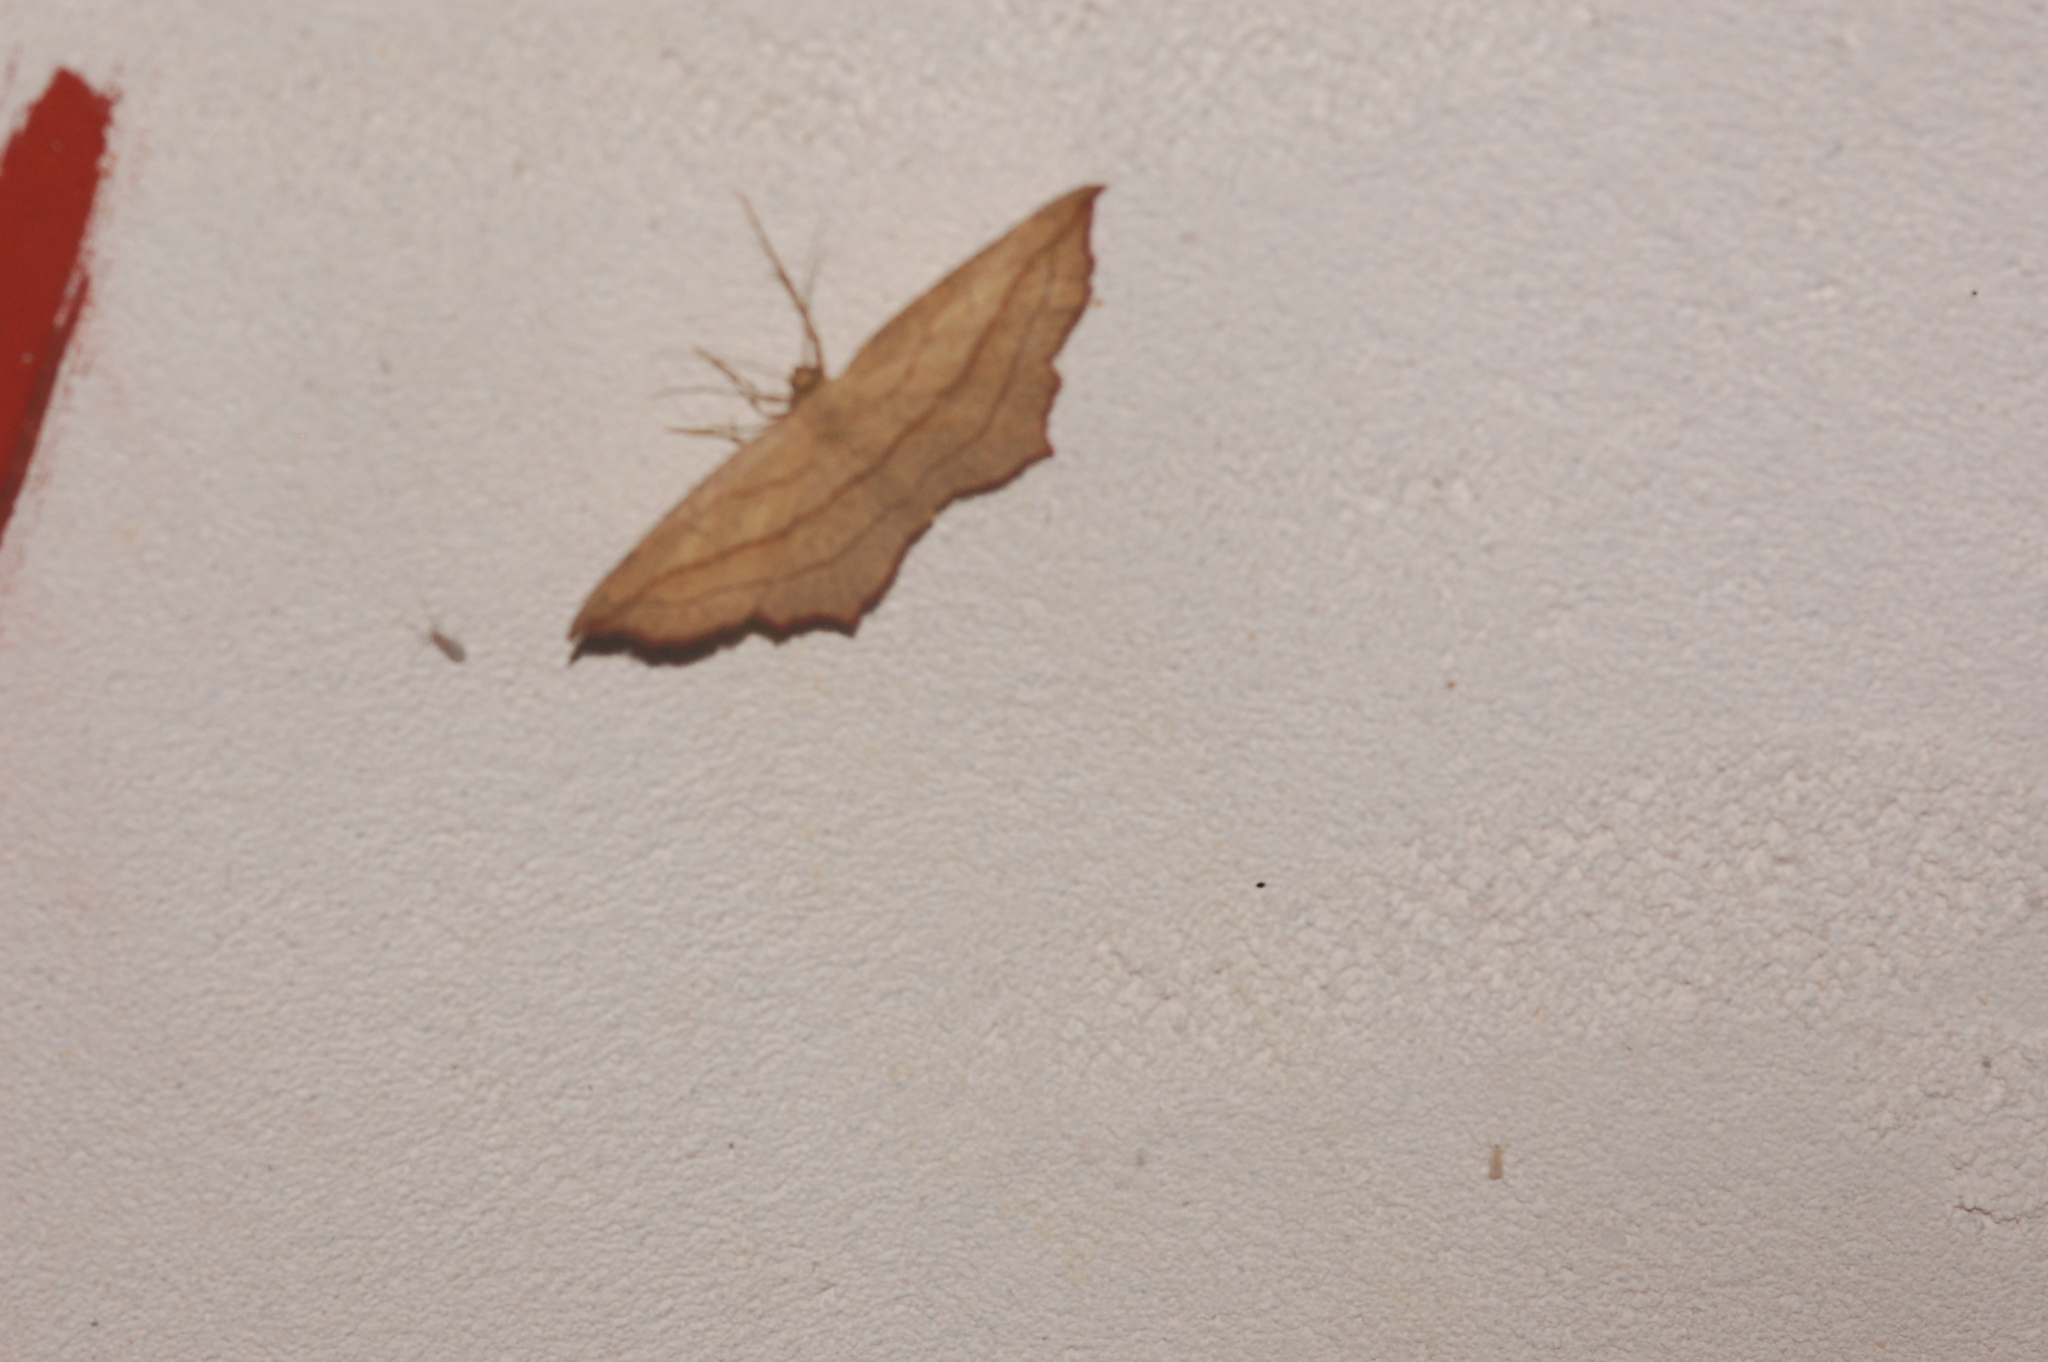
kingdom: Animalia
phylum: Arthropoda
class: Insecta
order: Lepidoptera
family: Geometridae
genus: Timandra
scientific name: Timandra amaturaria
